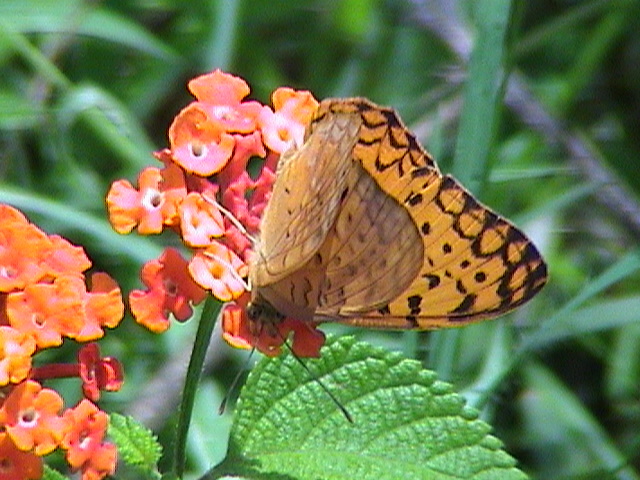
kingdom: Animalia
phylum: Arthropoda
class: Insecta
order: Lepidoptera
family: Nymphalidae
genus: Phalanta
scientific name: Phalanta phalantha
